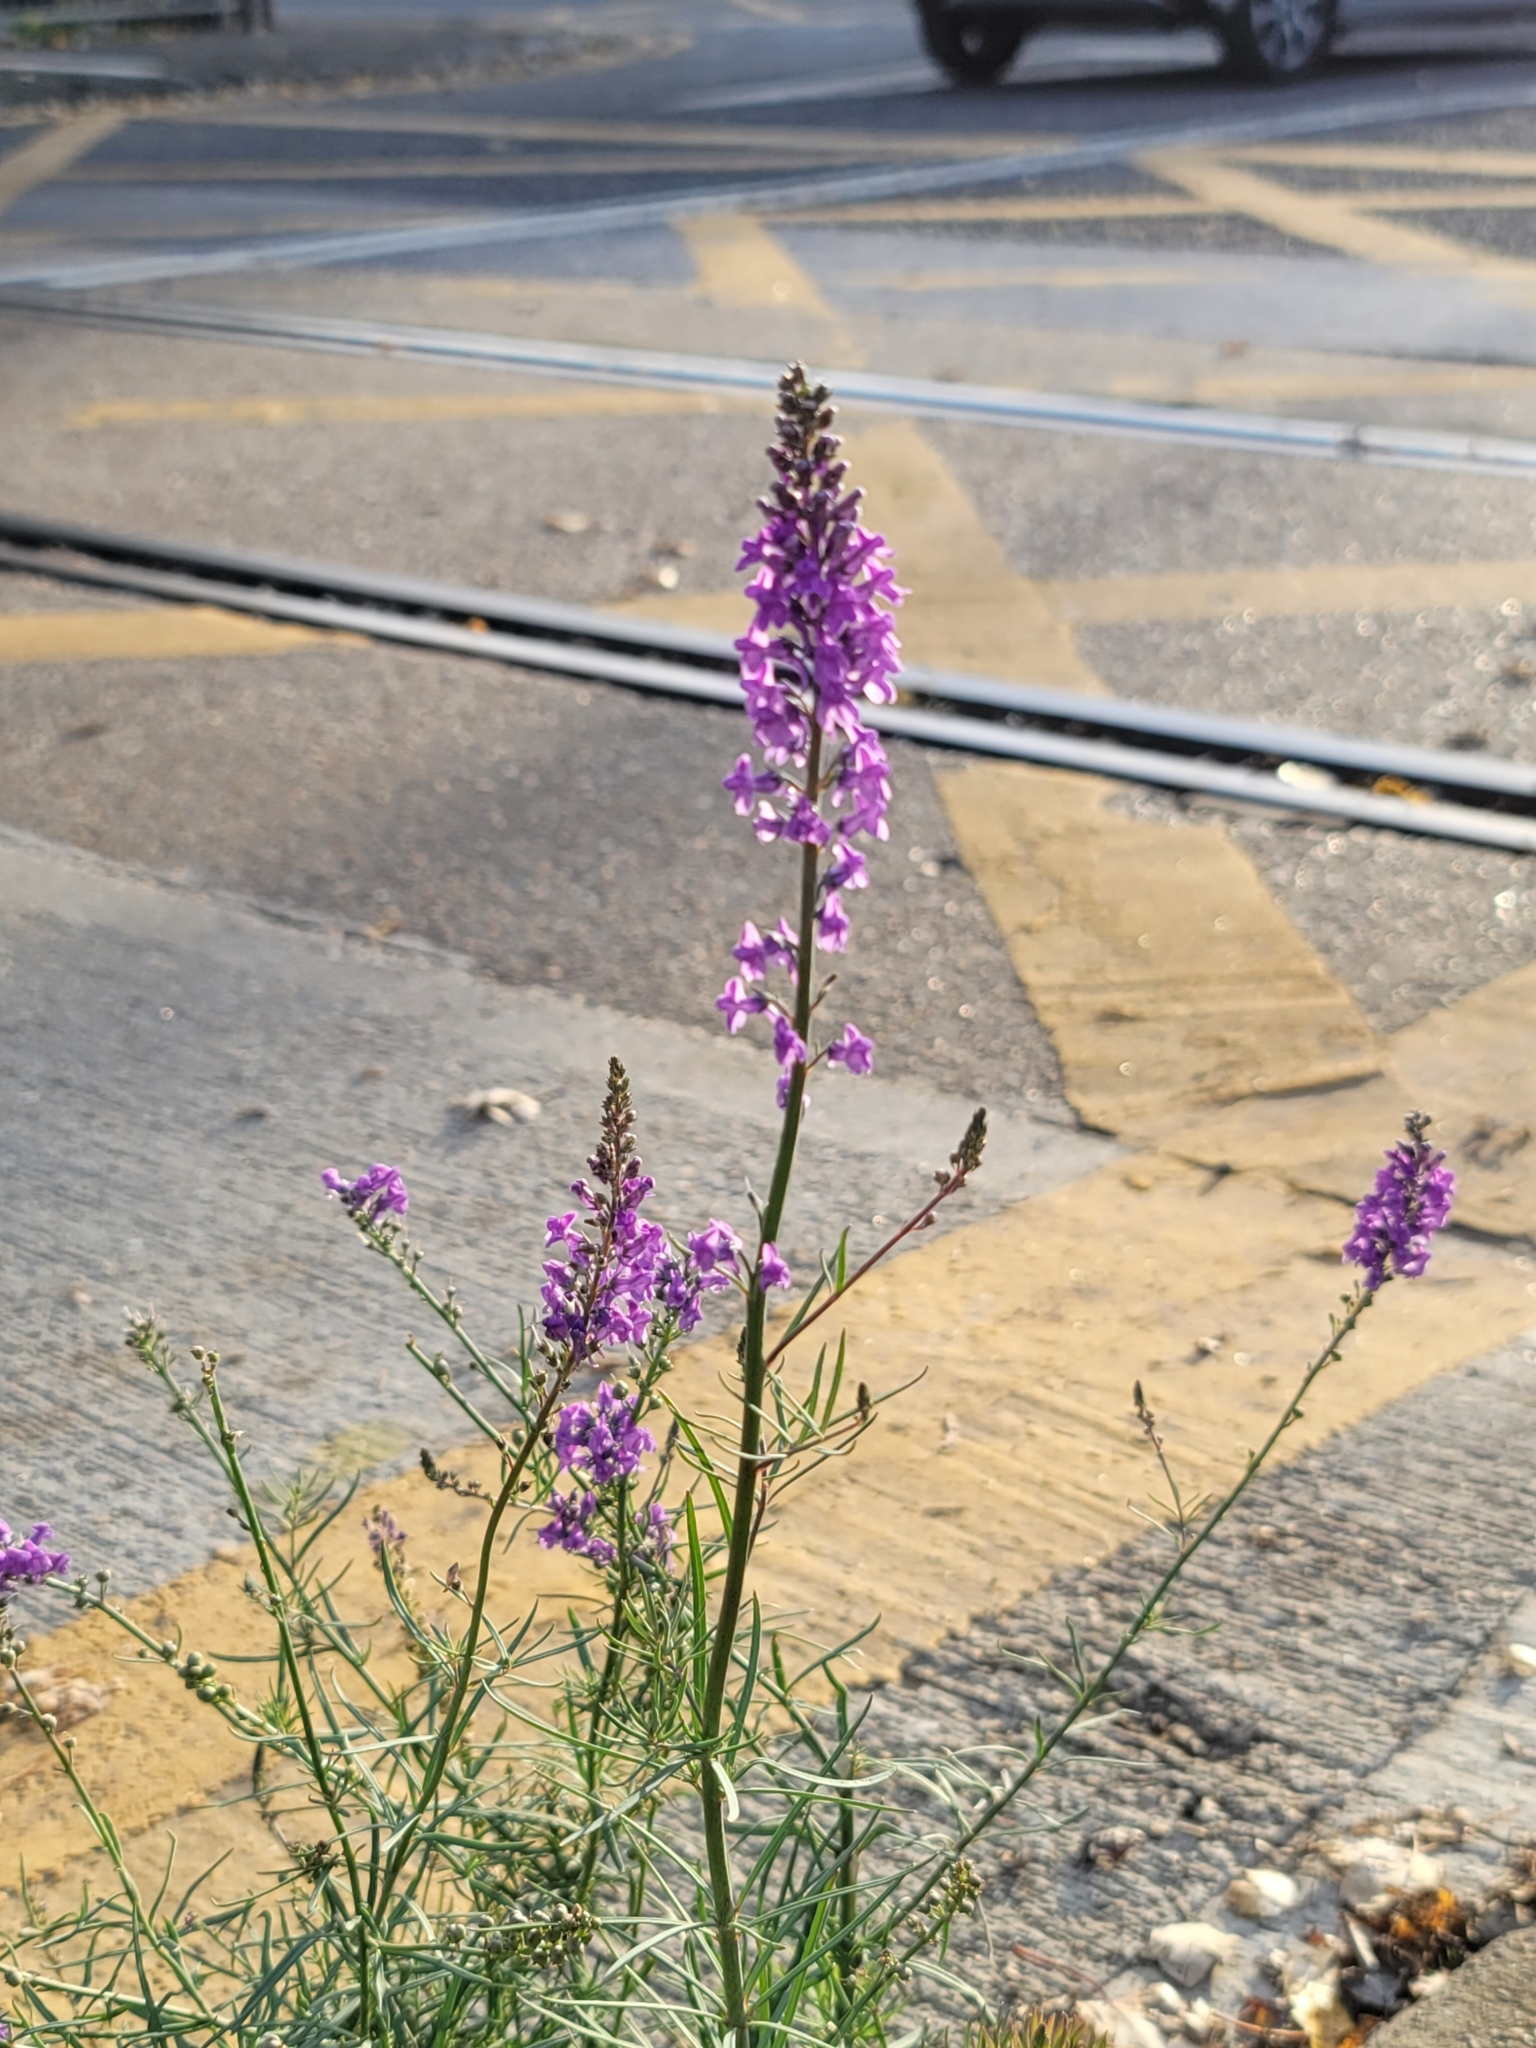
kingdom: Plantae
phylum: Tracheophyta
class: Magnoliopsida
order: Lamiales
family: Plantaginaceae
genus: Linaria
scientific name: Linaria purpurea
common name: Purple toadflax
